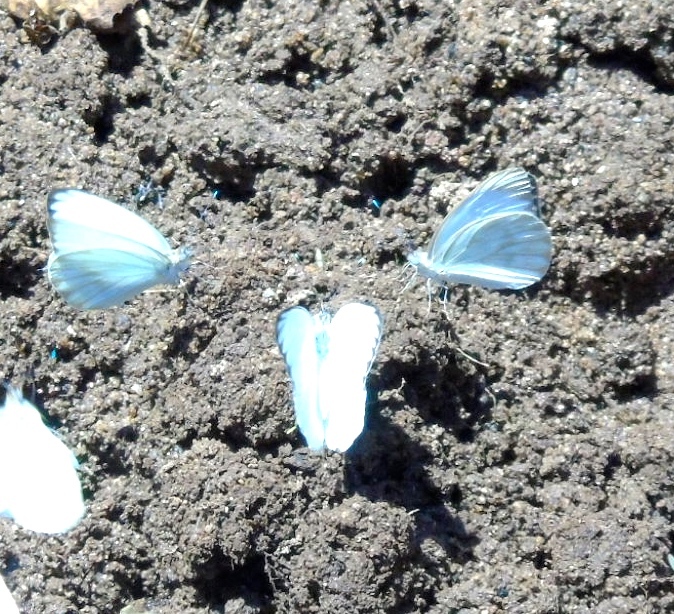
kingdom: Animalia
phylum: Arthropoda
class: Insecta
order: Lepidoptera
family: Pieridae
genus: Ascia
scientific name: Ascia monuste
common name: Great southern white
